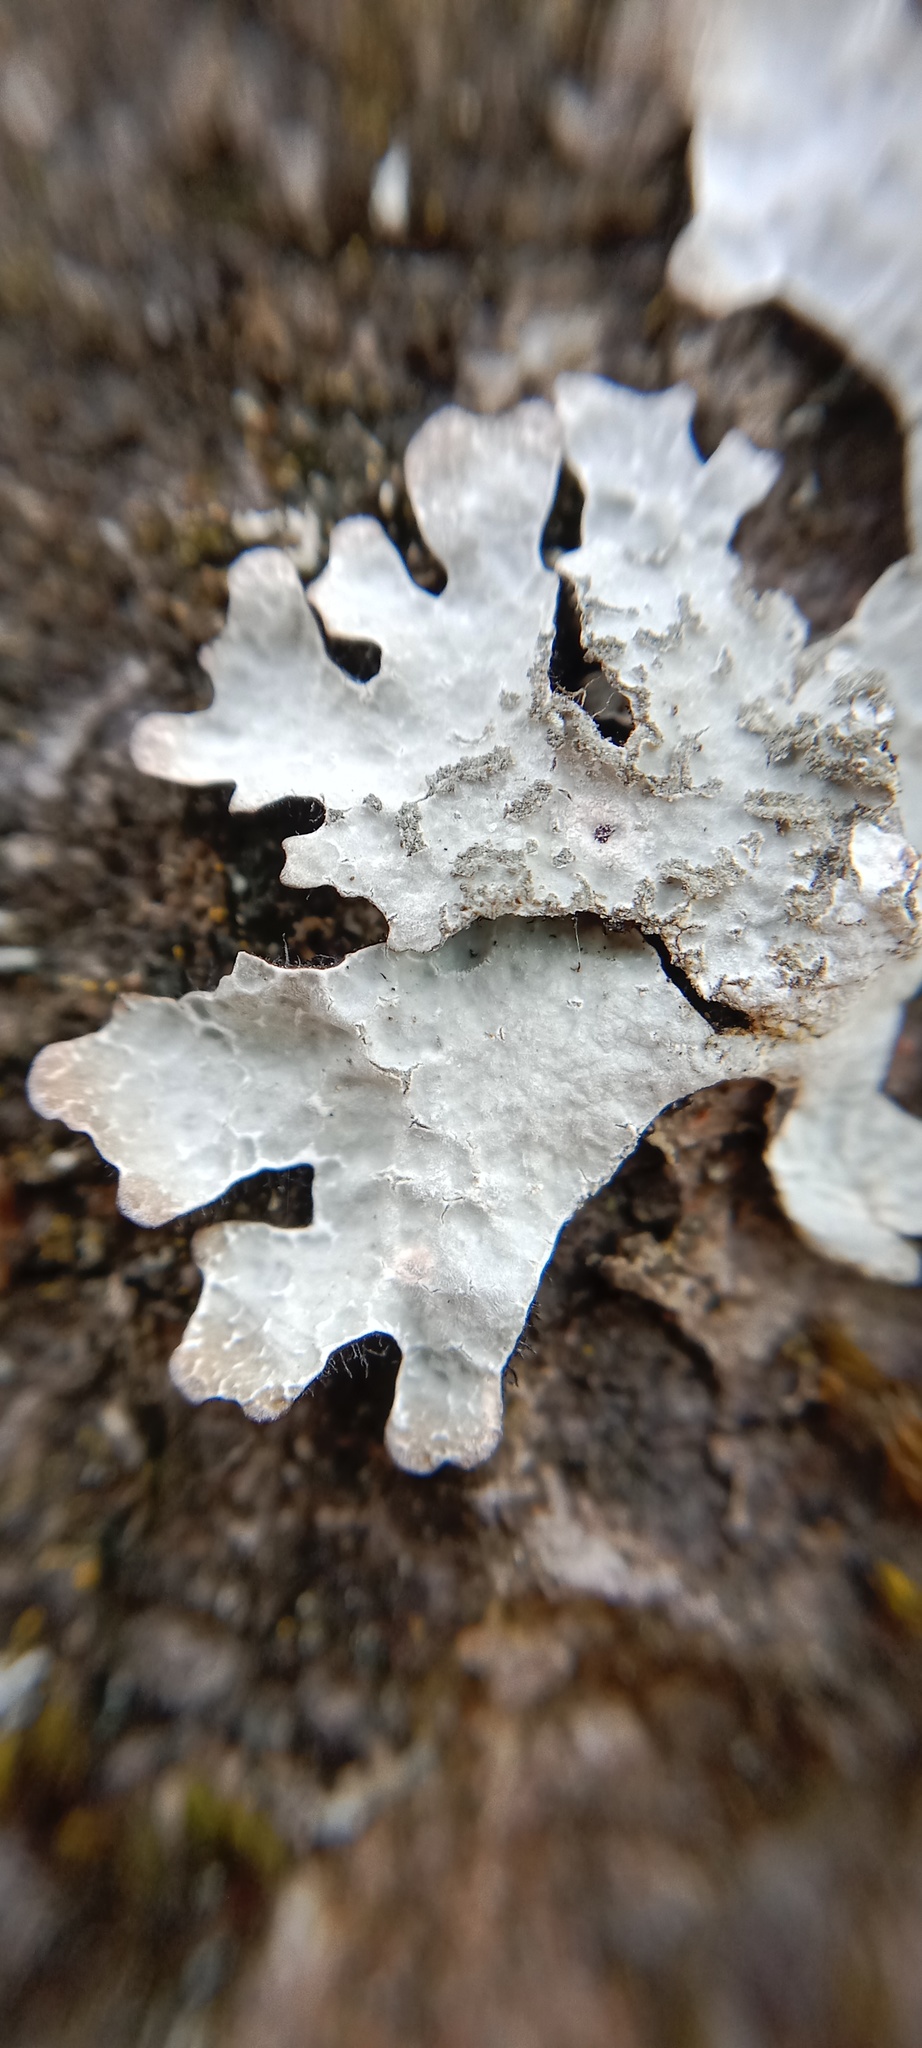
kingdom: Fungi
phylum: Ascomycota
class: Lecanoromycetes
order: Lecanorales
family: Parmeliaceae
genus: Parmelia
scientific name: Parmelia sulcata
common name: Netted shield lichen
